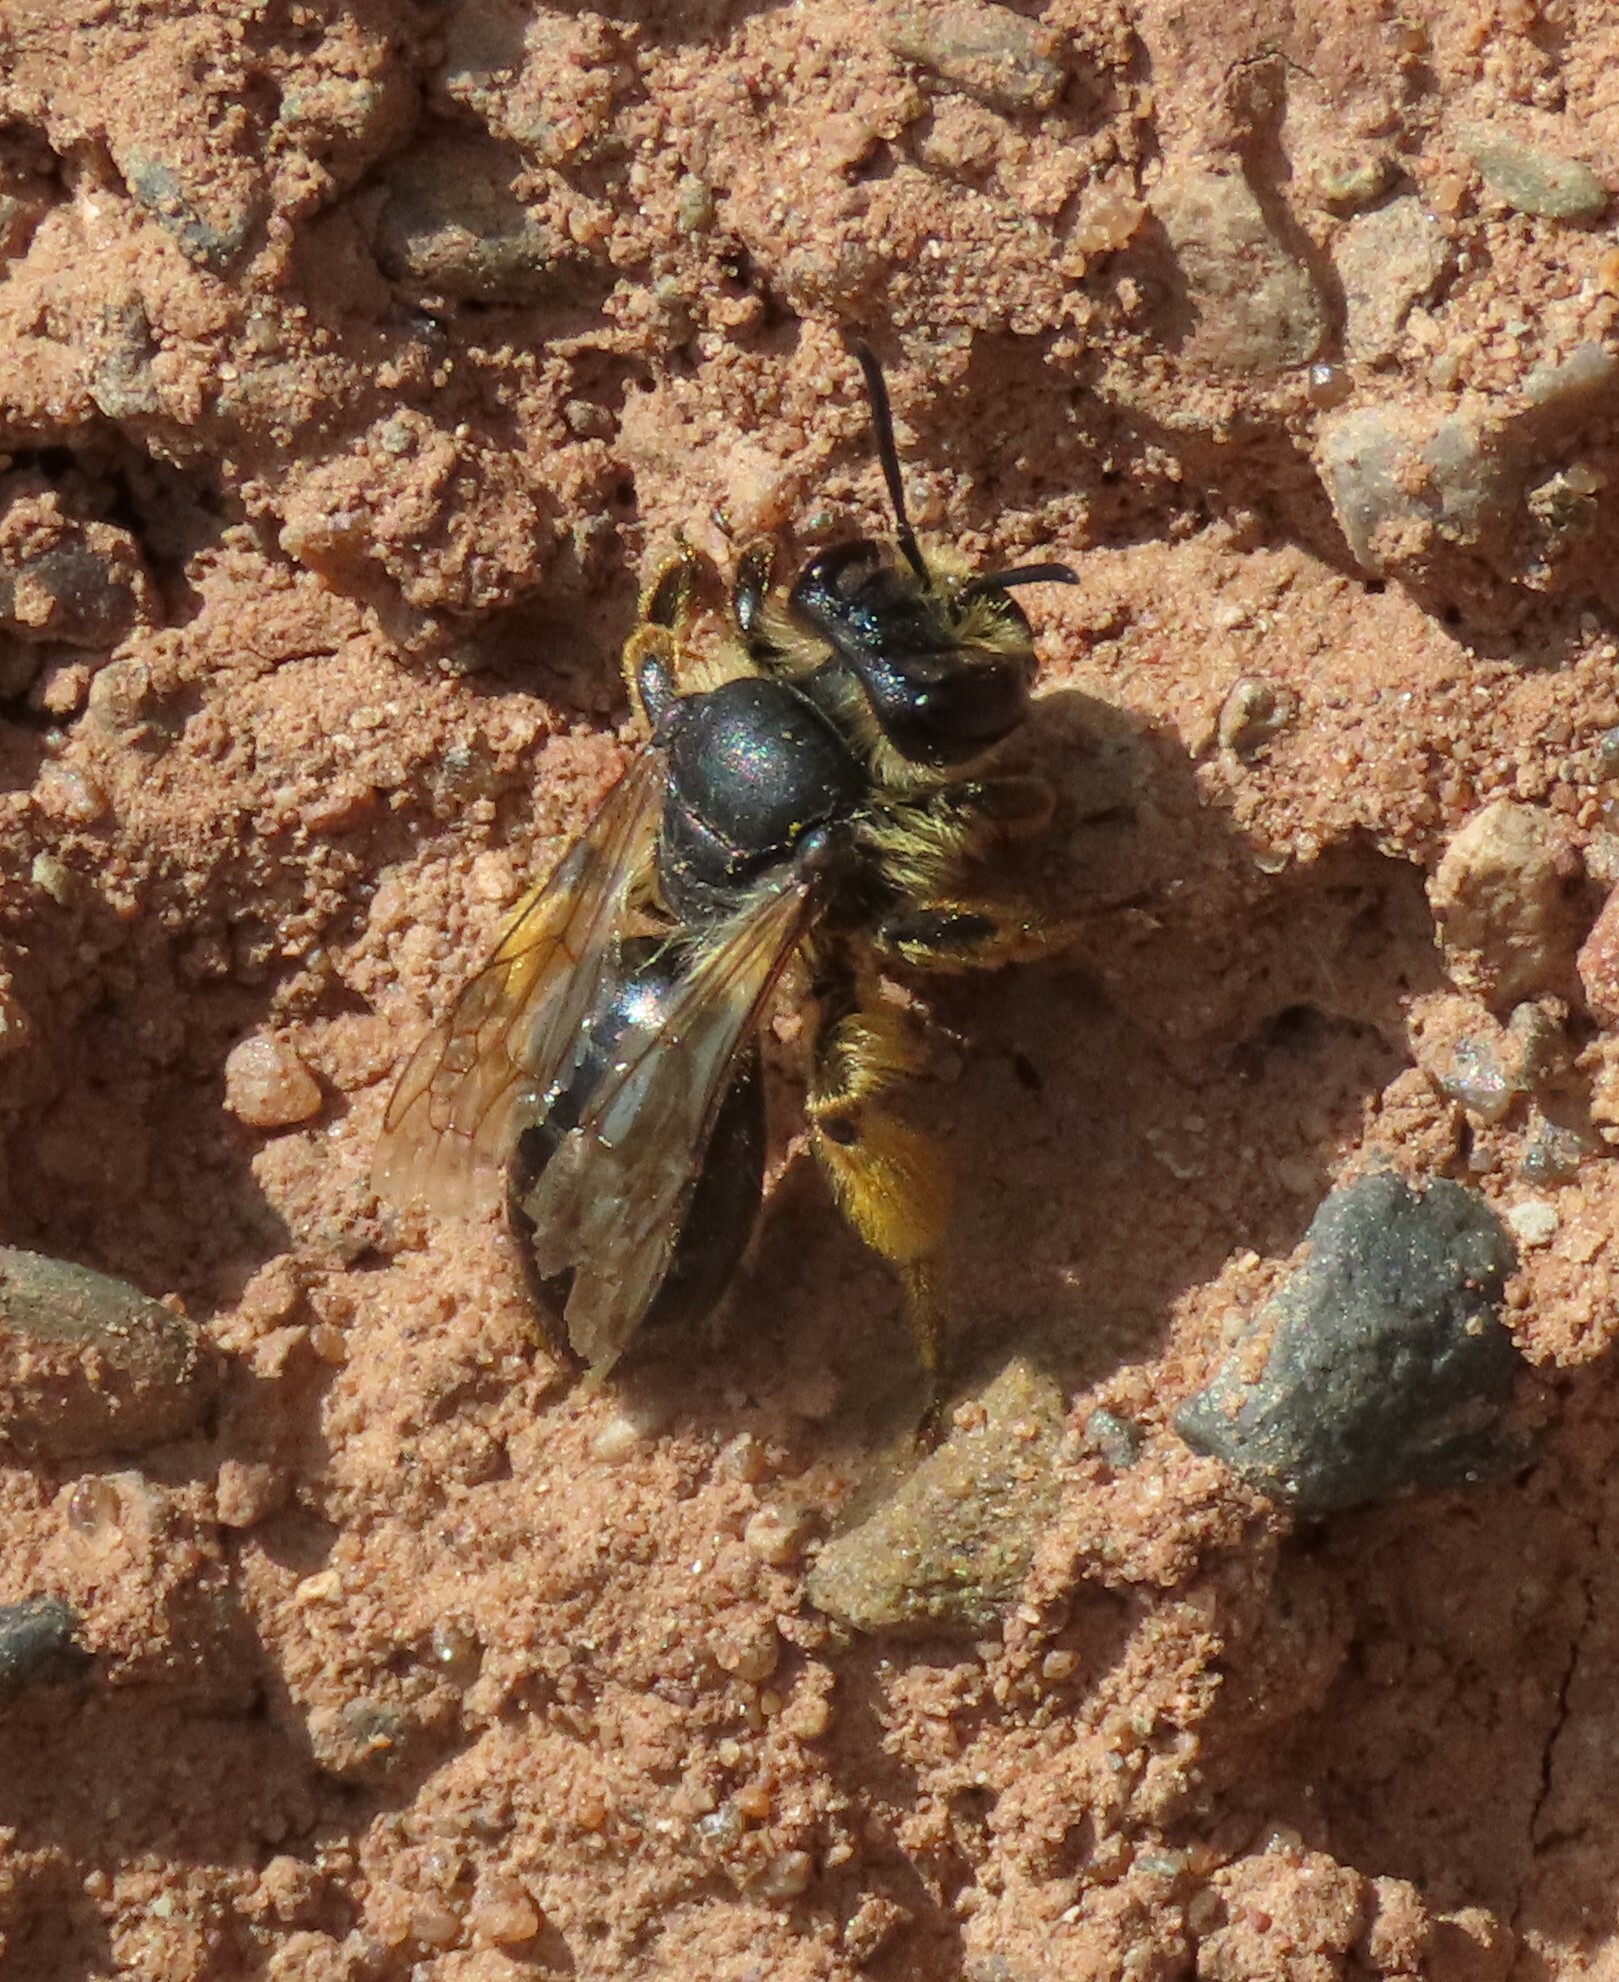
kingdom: Animalia
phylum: Arthropoda
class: Insecta
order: Hymenoptera
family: Andrenidae
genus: Andrena
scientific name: Andrena flavipes
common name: Yellow-legged mining bee
